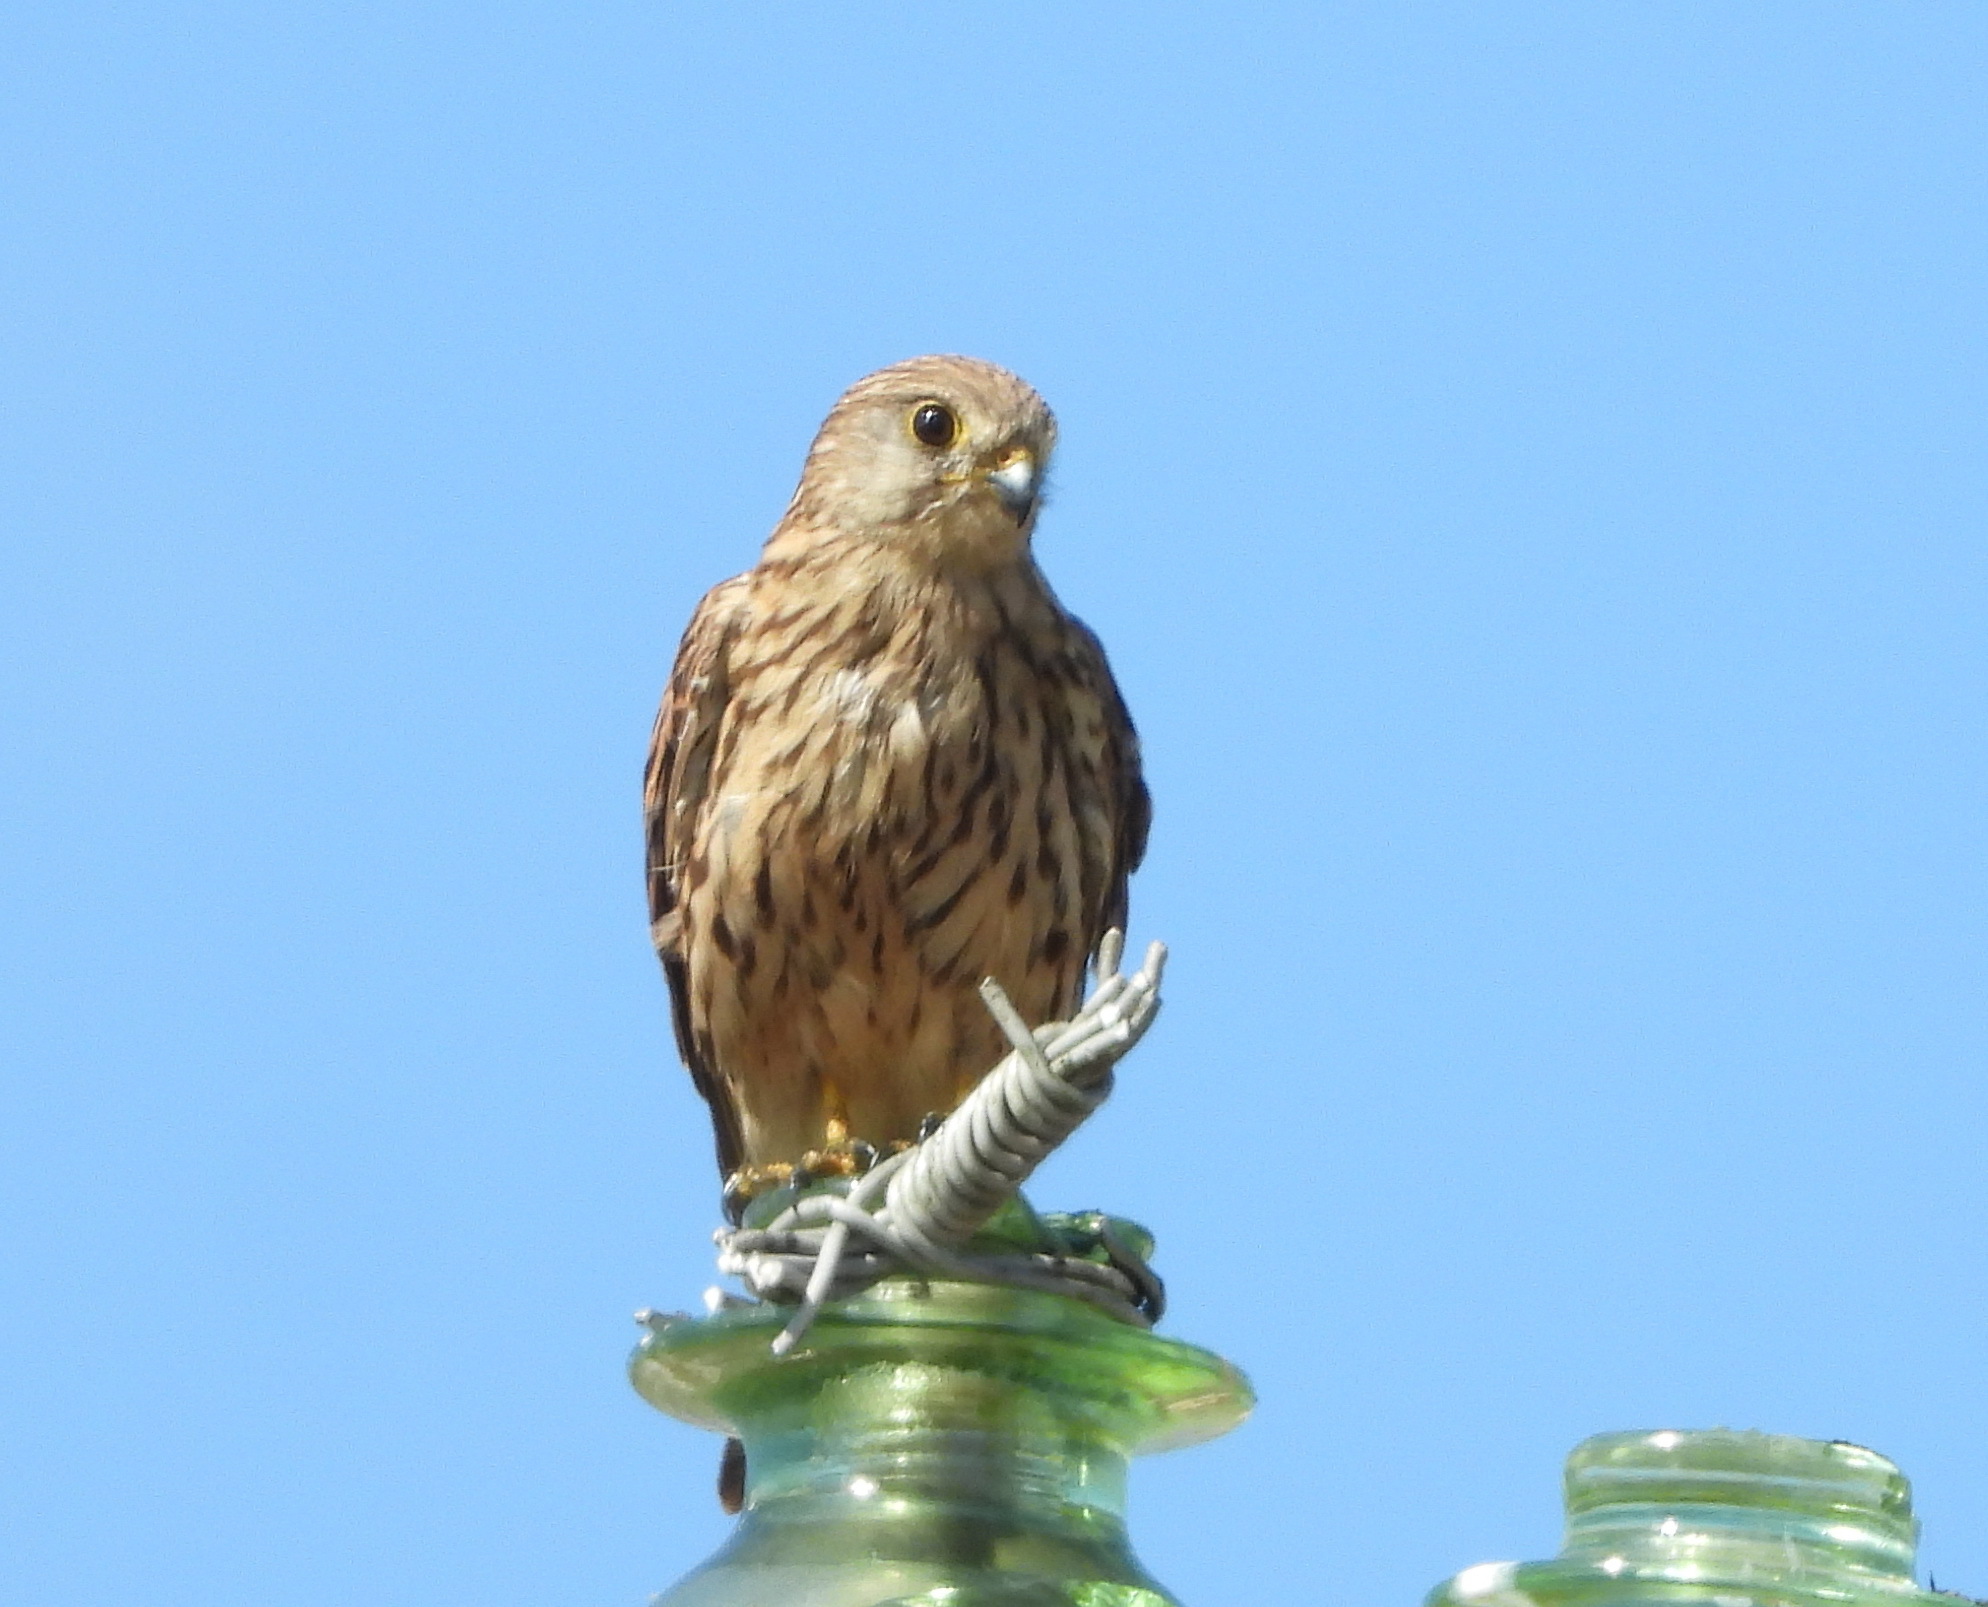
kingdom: Animalia
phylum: Chordata
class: Aves
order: Falconiformes
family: Falconidae
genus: Falco
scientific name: Falco tinnunculus
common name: Common kestrel
